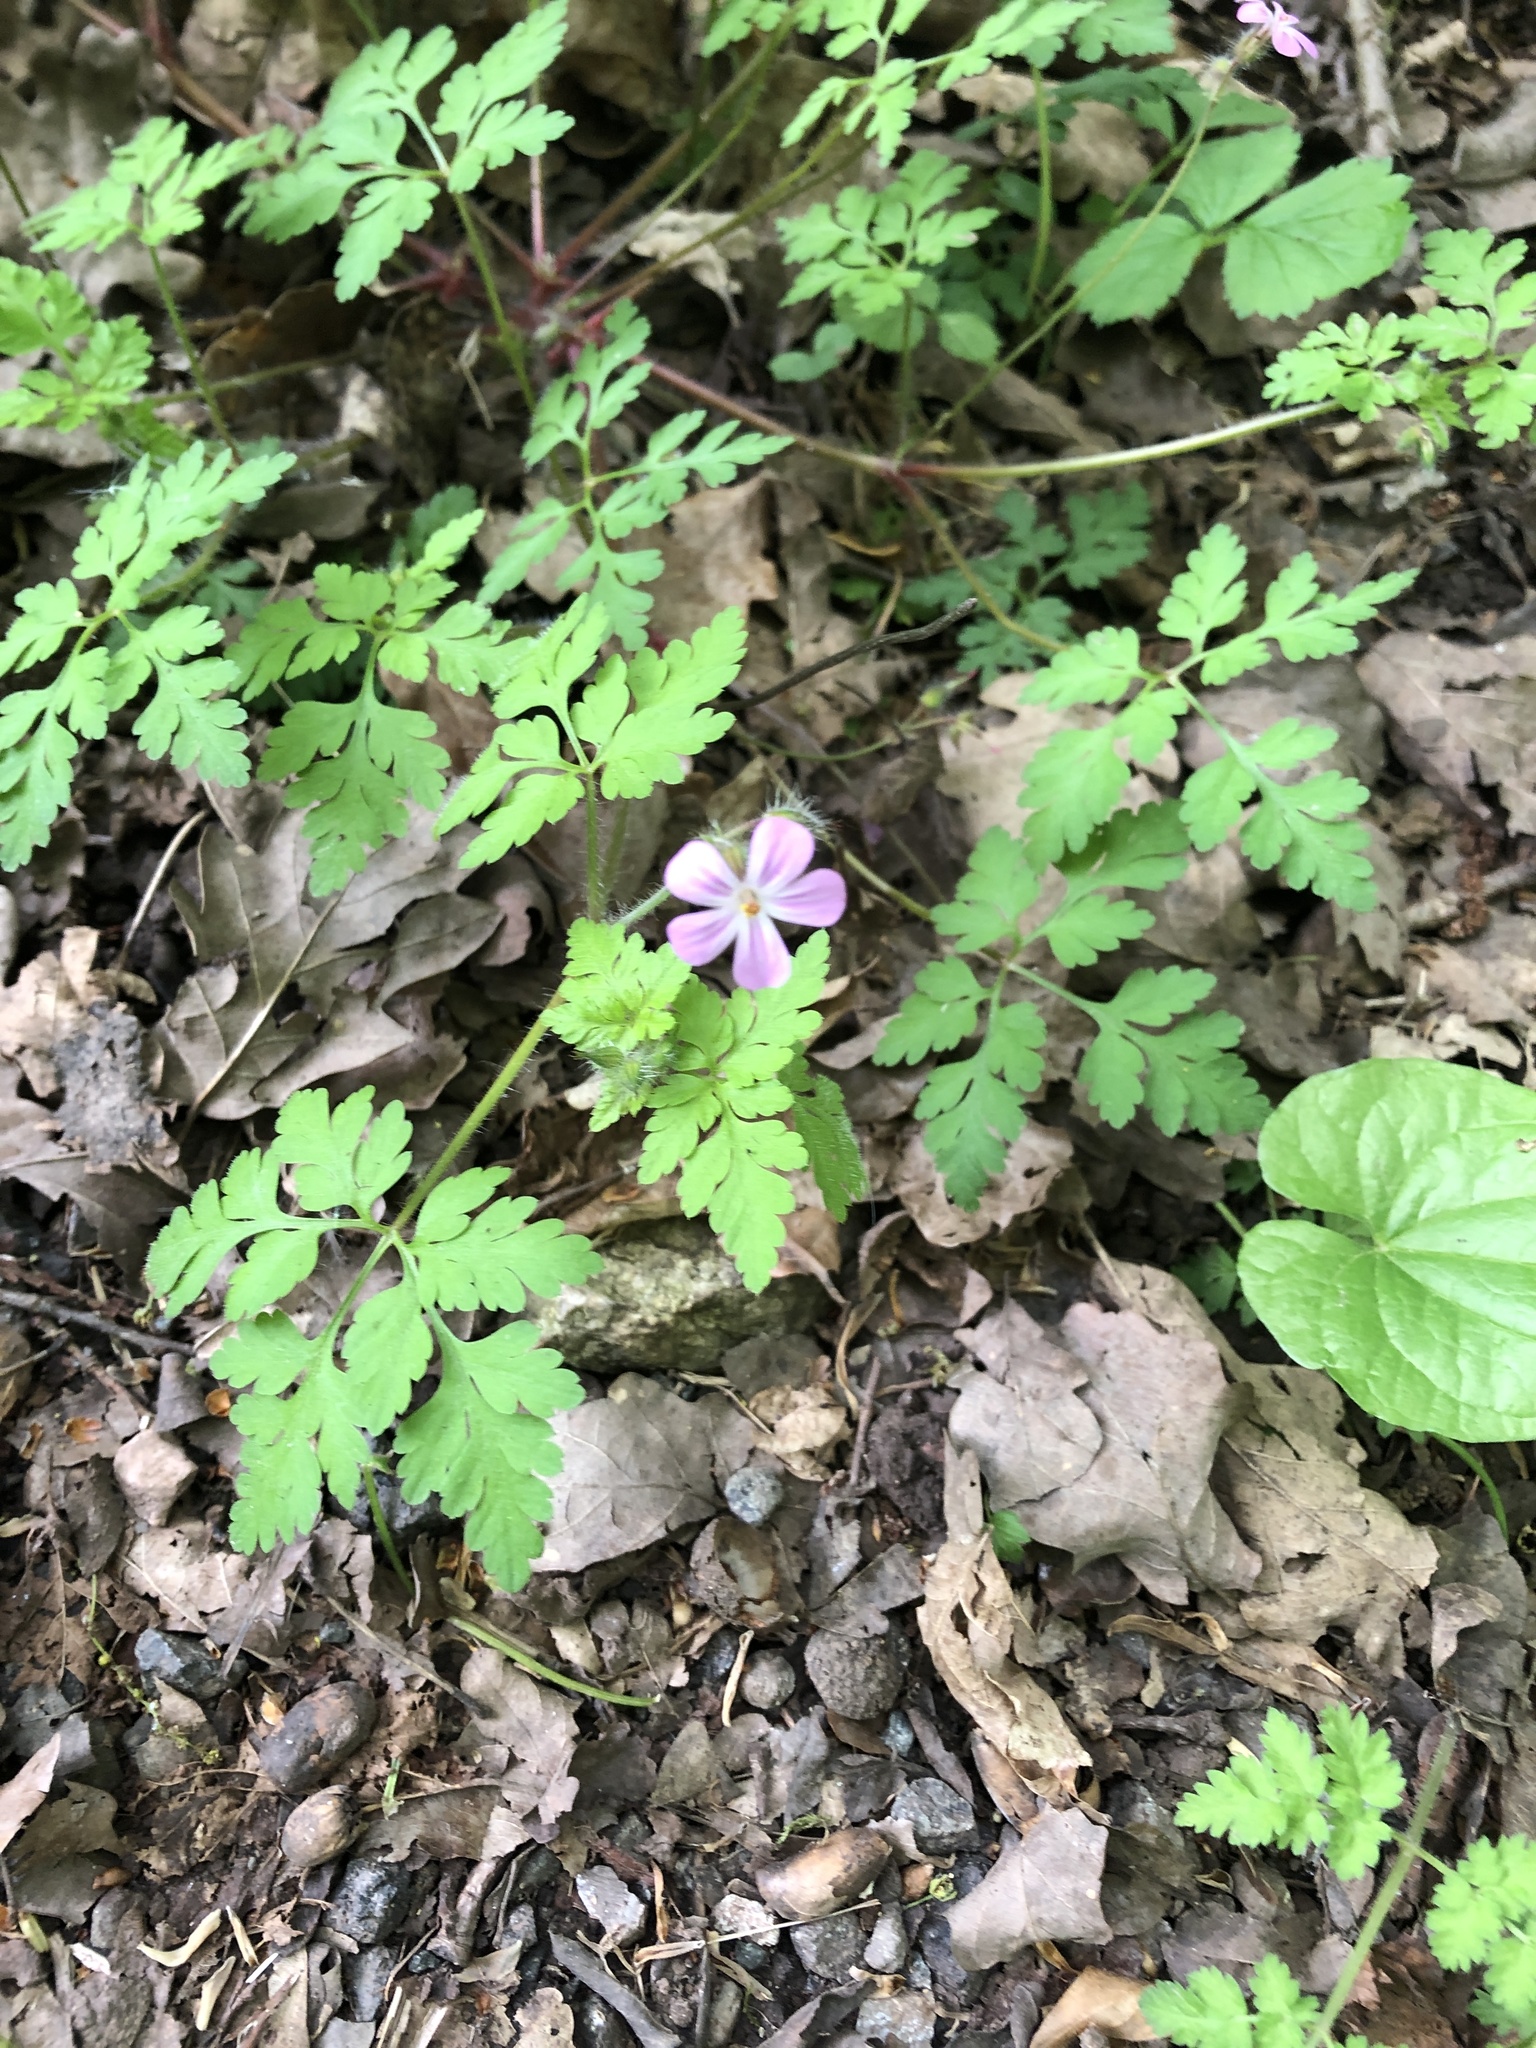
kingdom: Plantae
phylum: Tracheophyta
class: Magnoliopsida
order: Geraniales
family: Geraniaceae
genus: Geranium
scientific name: Geranium robertianum
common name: Herb-robert
